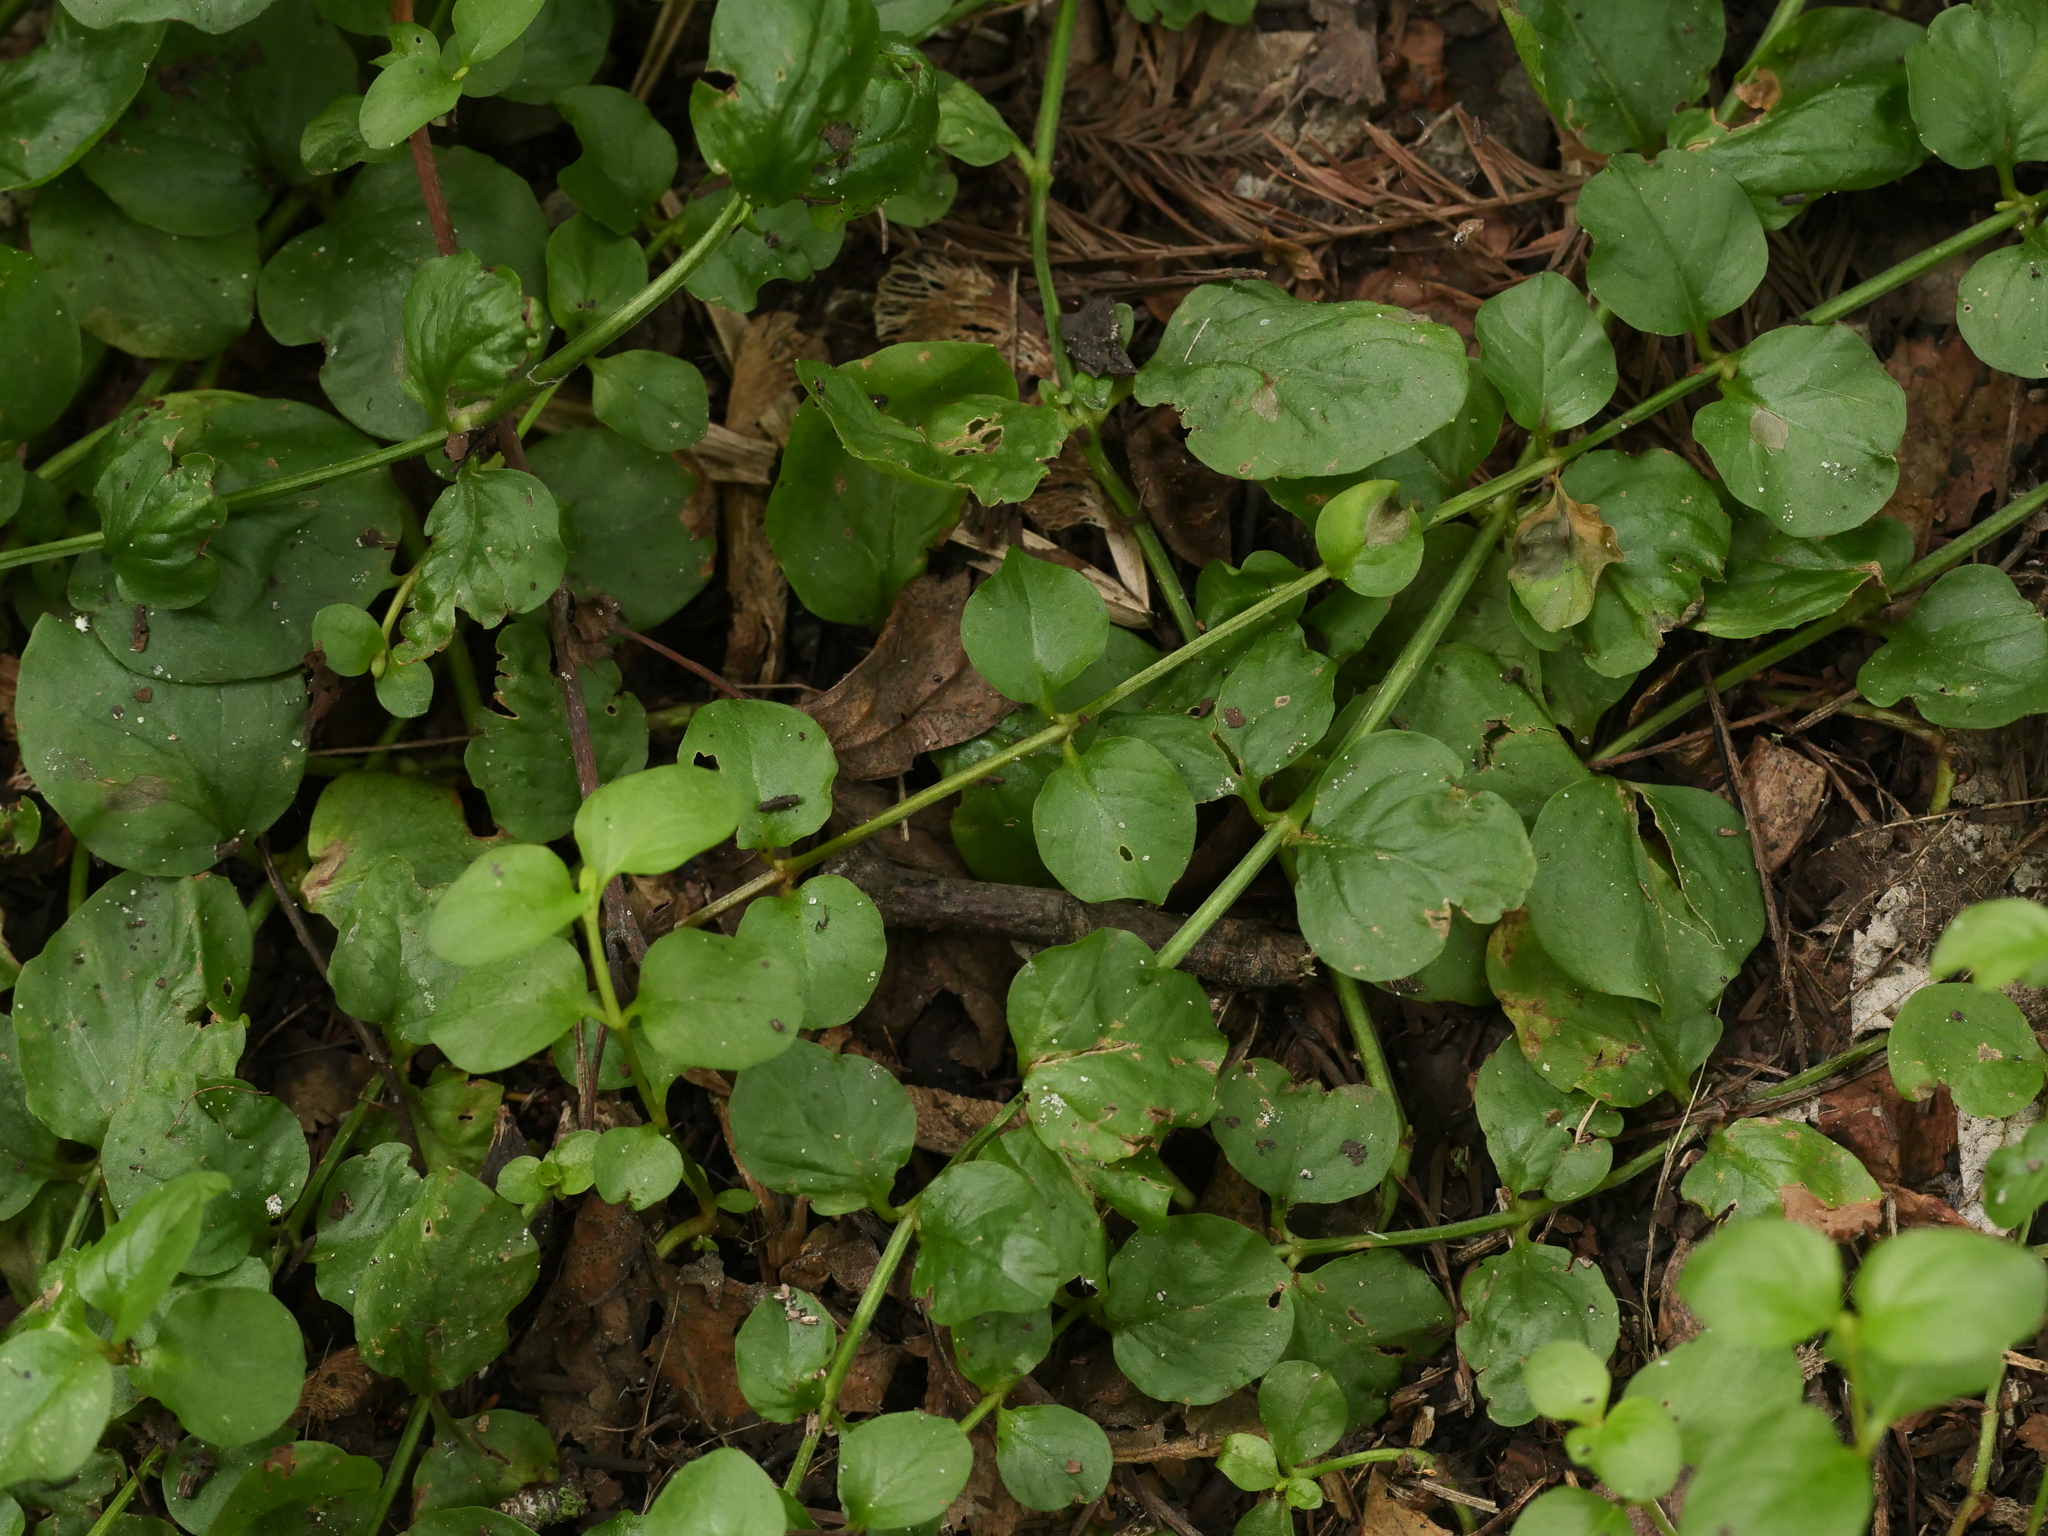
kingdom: Plantae
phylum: Tracheophyta
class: Magnoliopsida
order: Ericales
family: Primulaceae
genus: Lysimachia
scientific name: Lysimachia nummularia
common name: Moneywort
